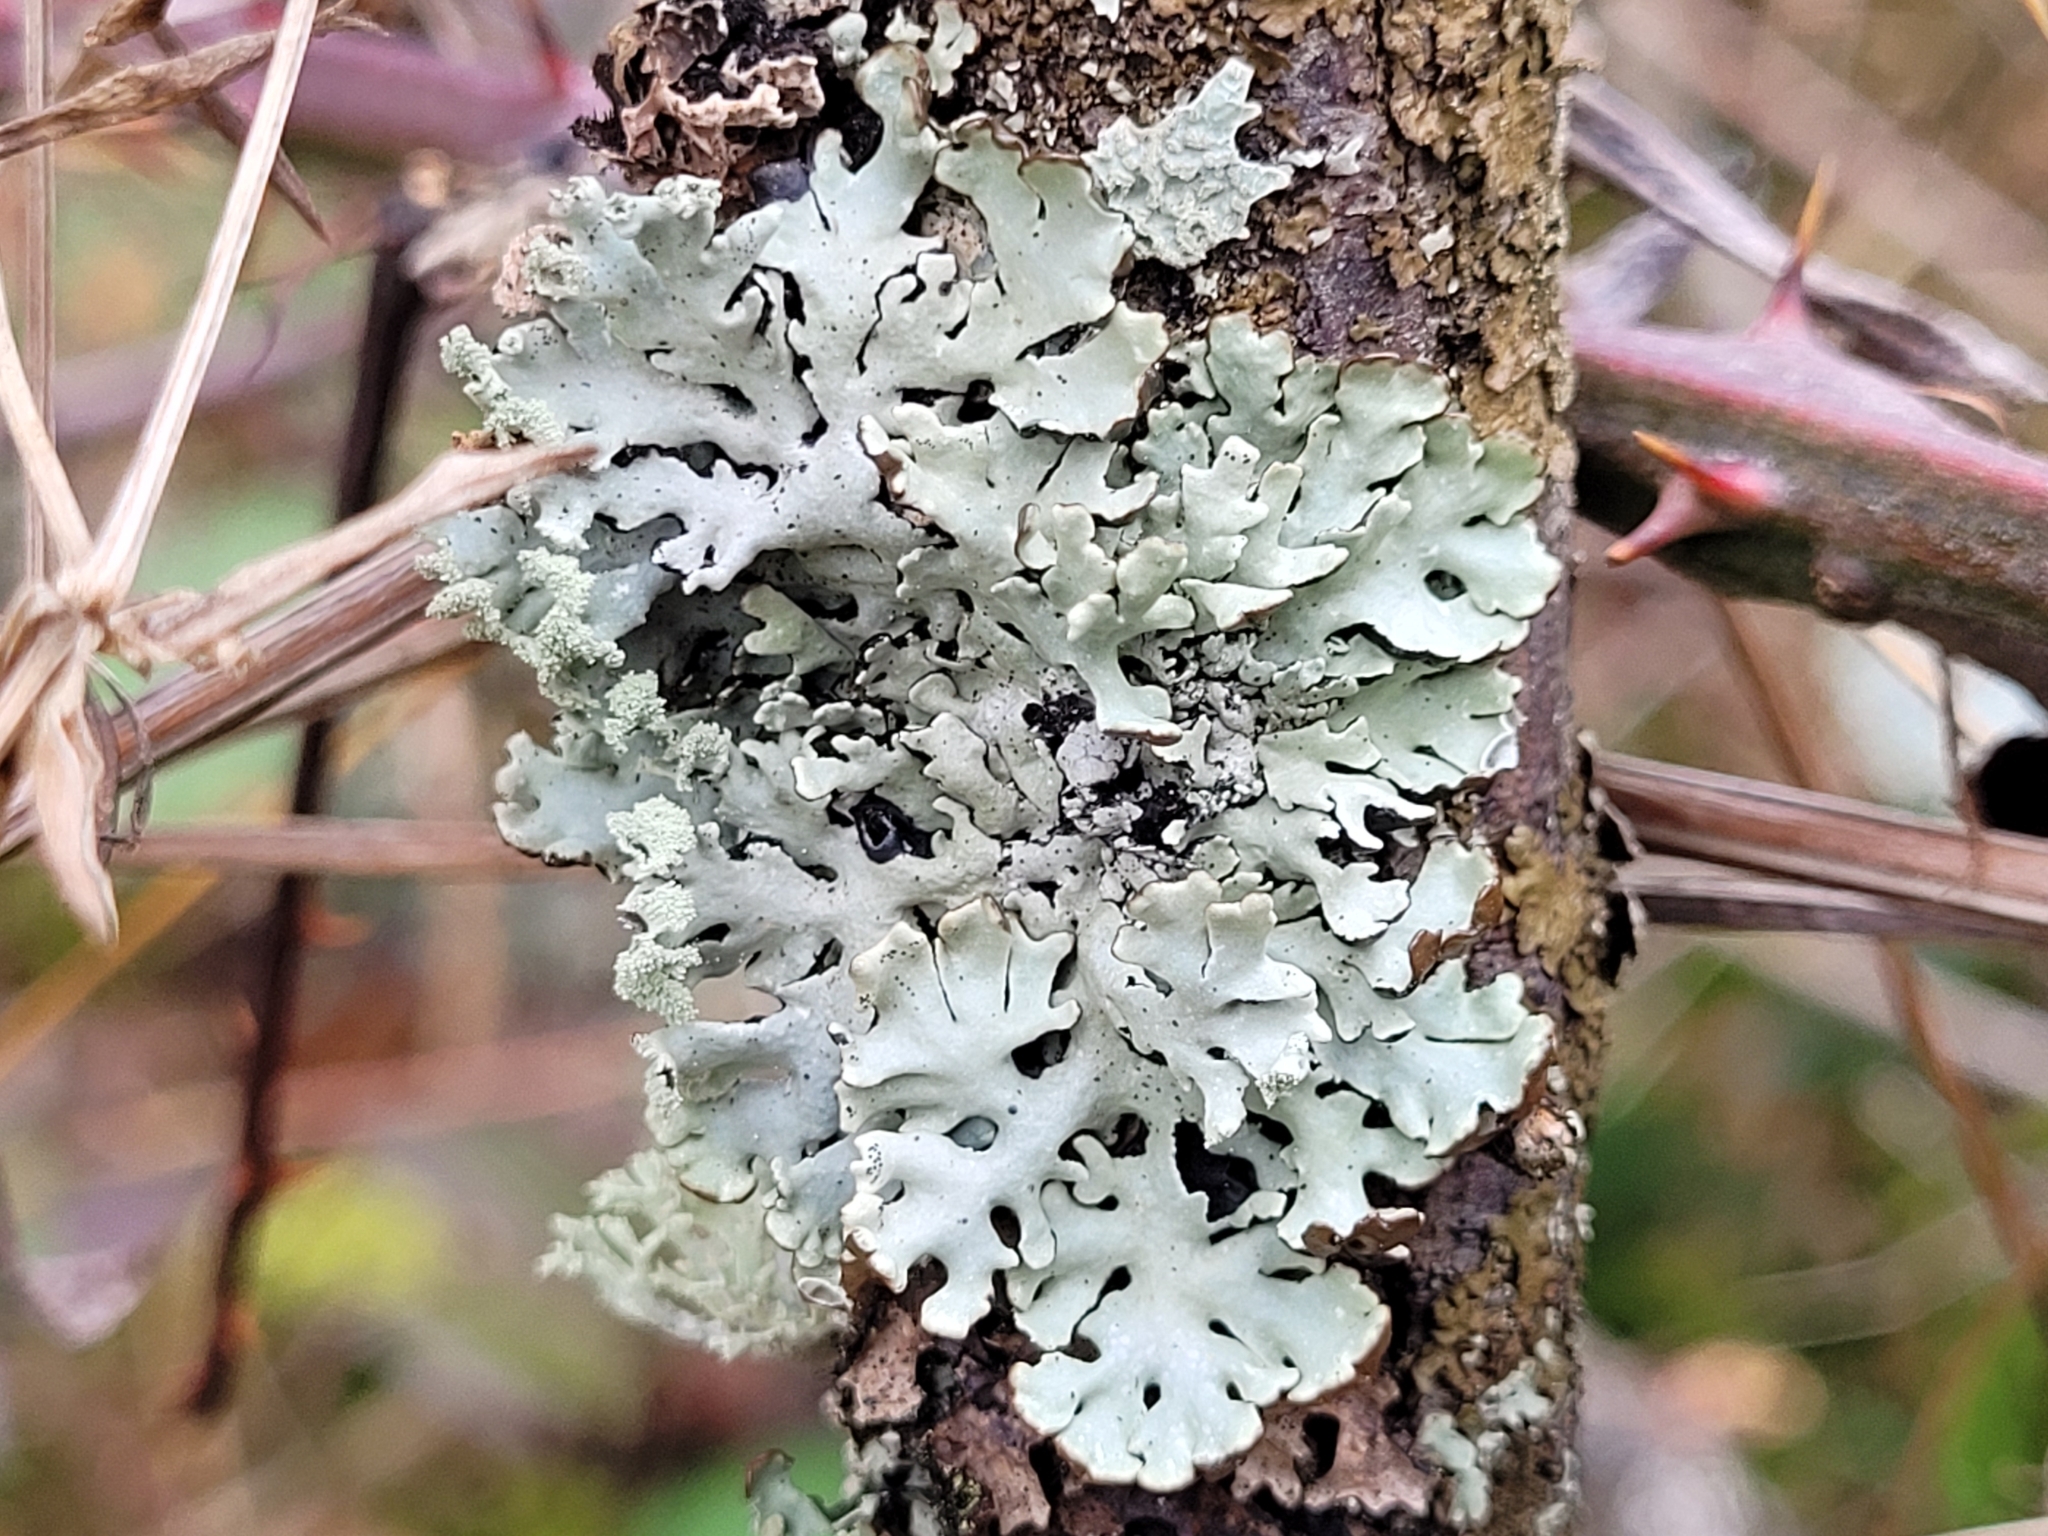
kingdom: Fungi
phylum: Ascomycota
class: Lecanoromycetes
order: Lecanorales
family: Parmeliaceae
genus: Hypogymnia
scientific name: Hypogymnia physodes
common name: Dark crottle
